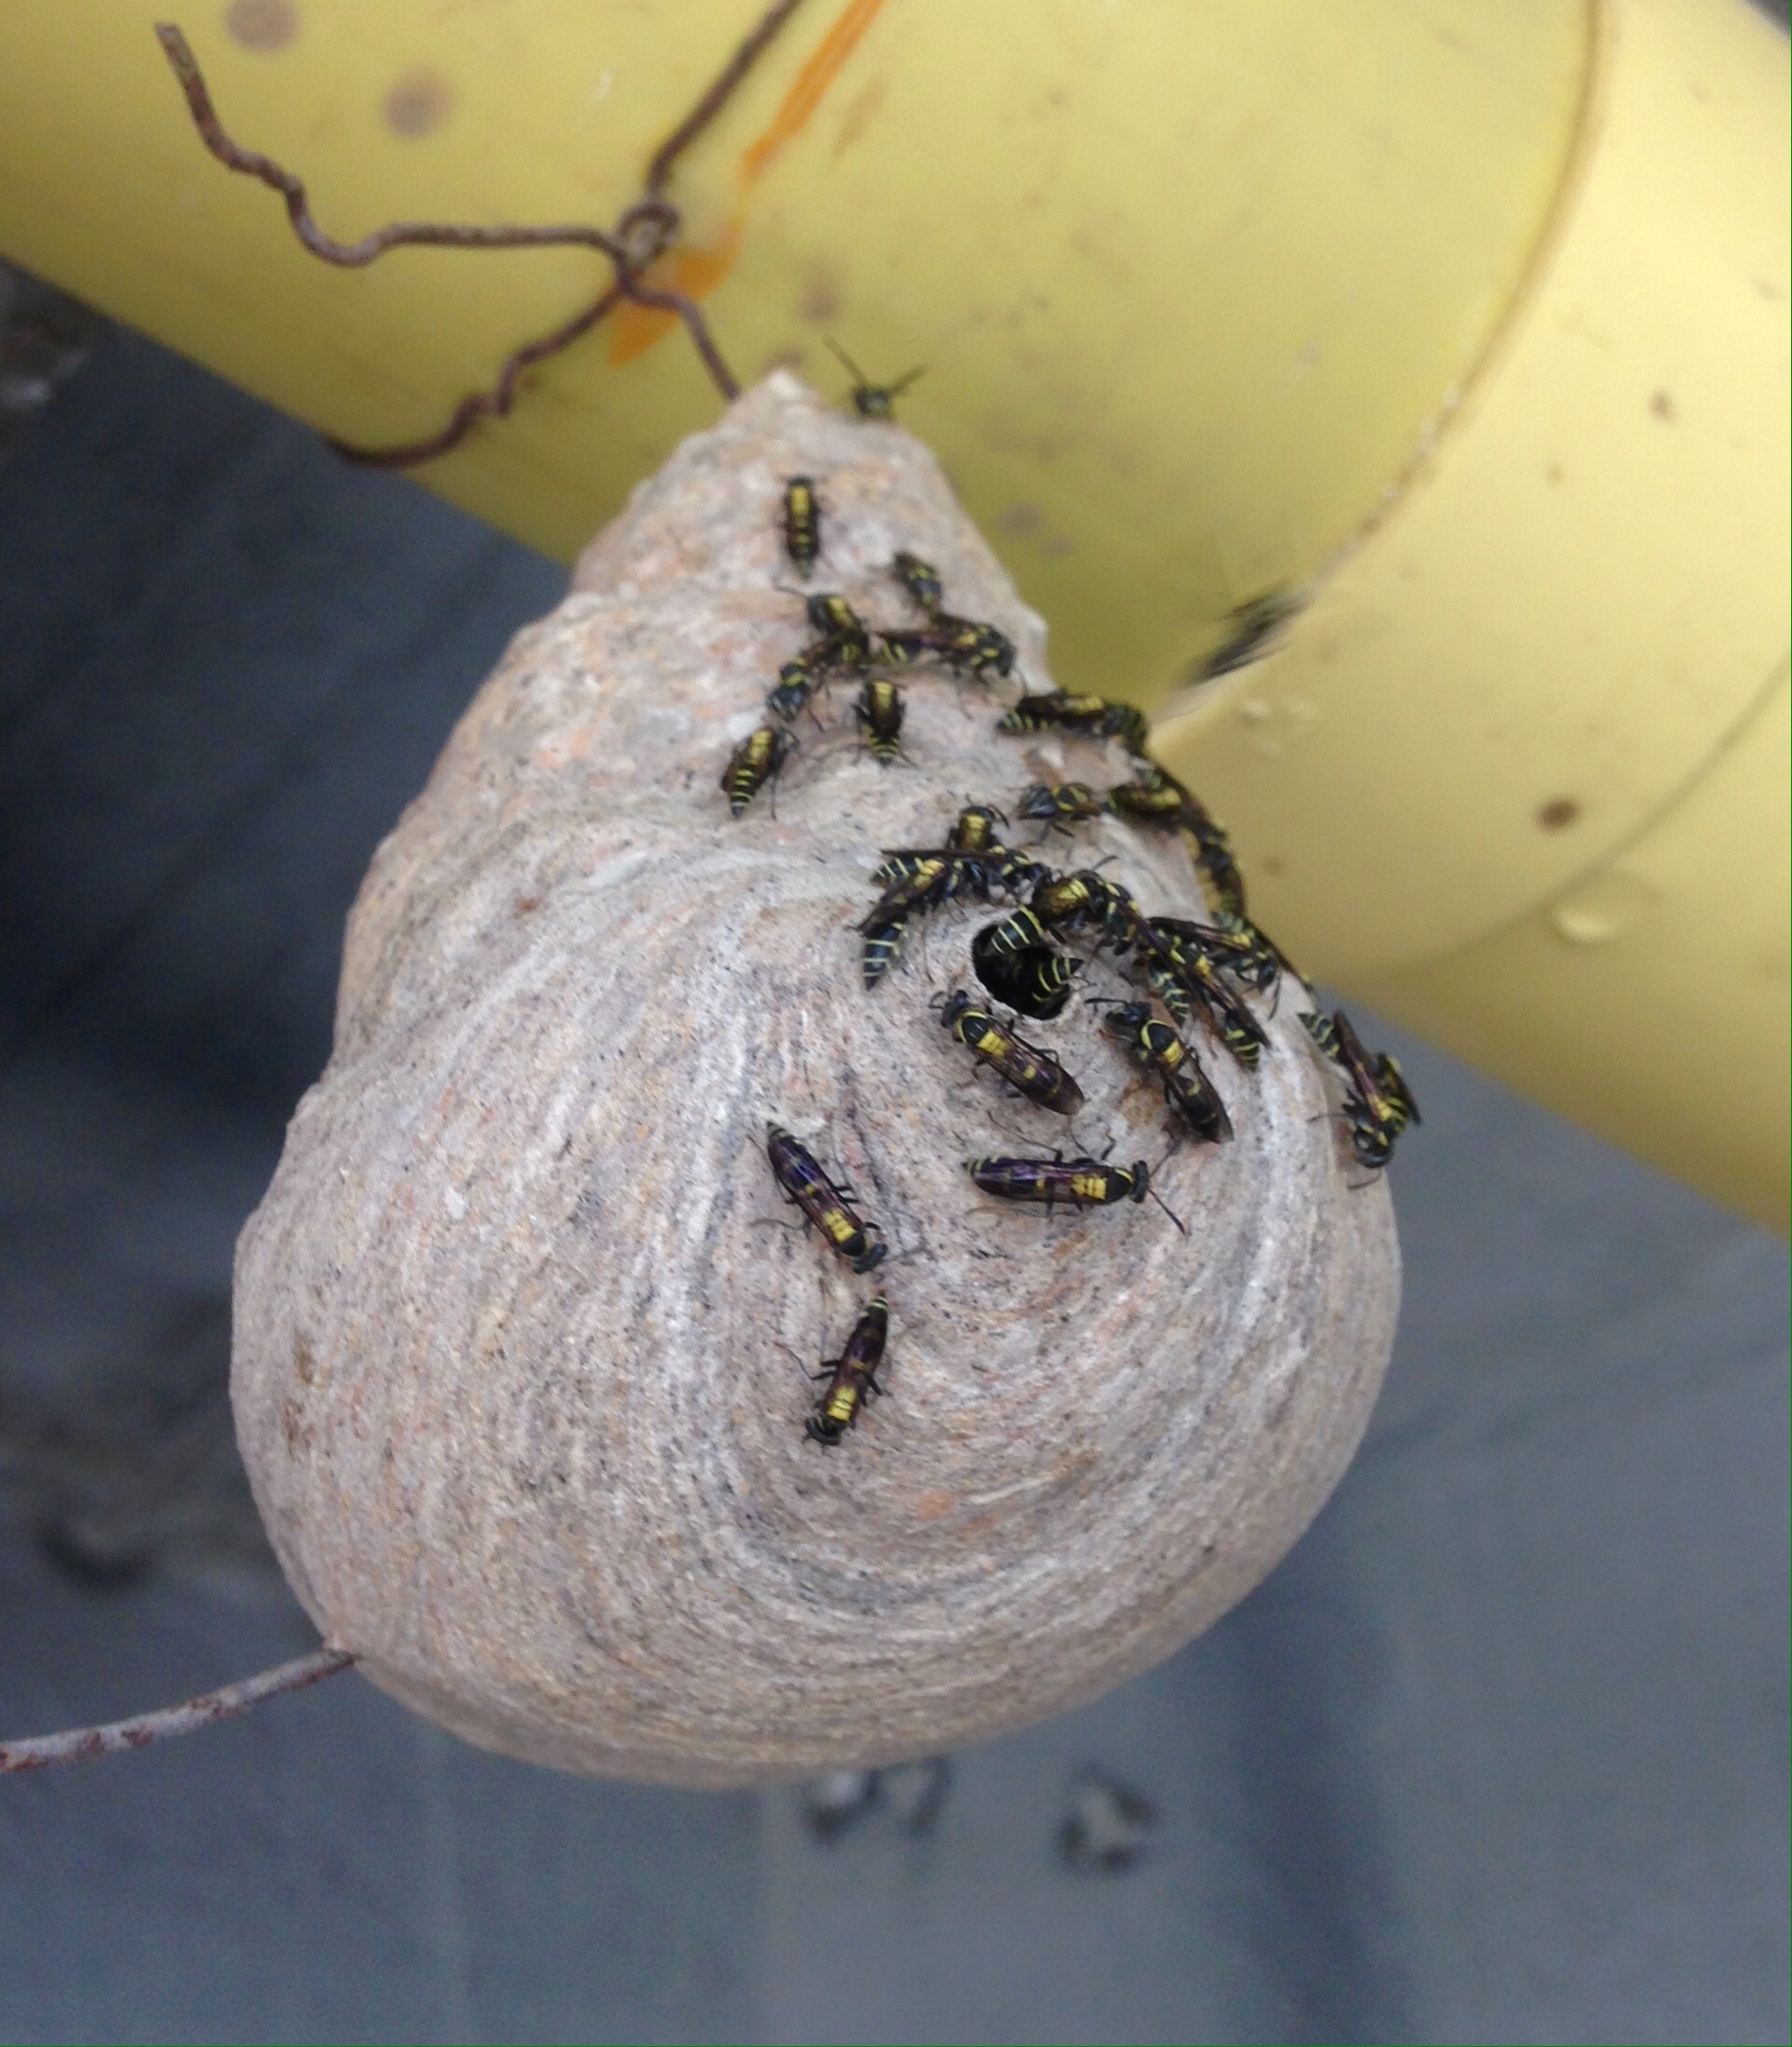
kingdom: Animalia
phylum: Arthropoda
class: Insecta
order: Hymenoptera
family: Eumenidae
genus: Polybia
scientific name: Polybia occidentalis
